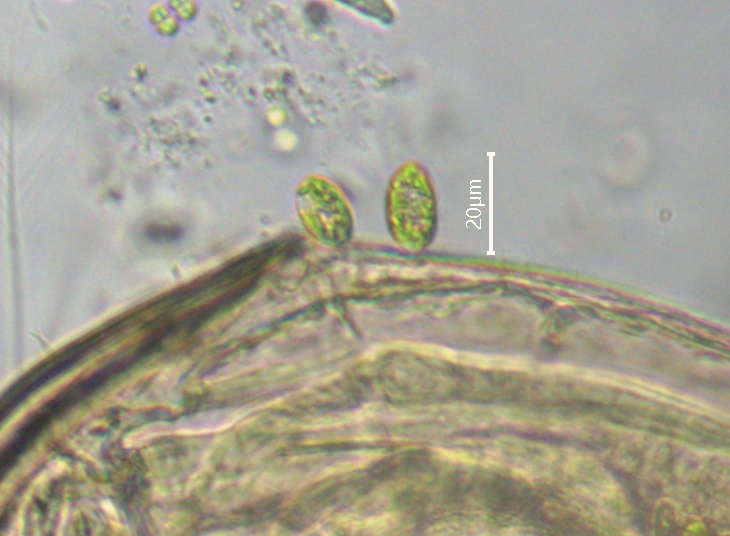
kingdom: Protozoa
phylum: Euglenozoa
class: Euglenoidea
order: Euglenida
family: Euglenaceae
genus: Colacium
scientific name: Colacium vesiculosum
